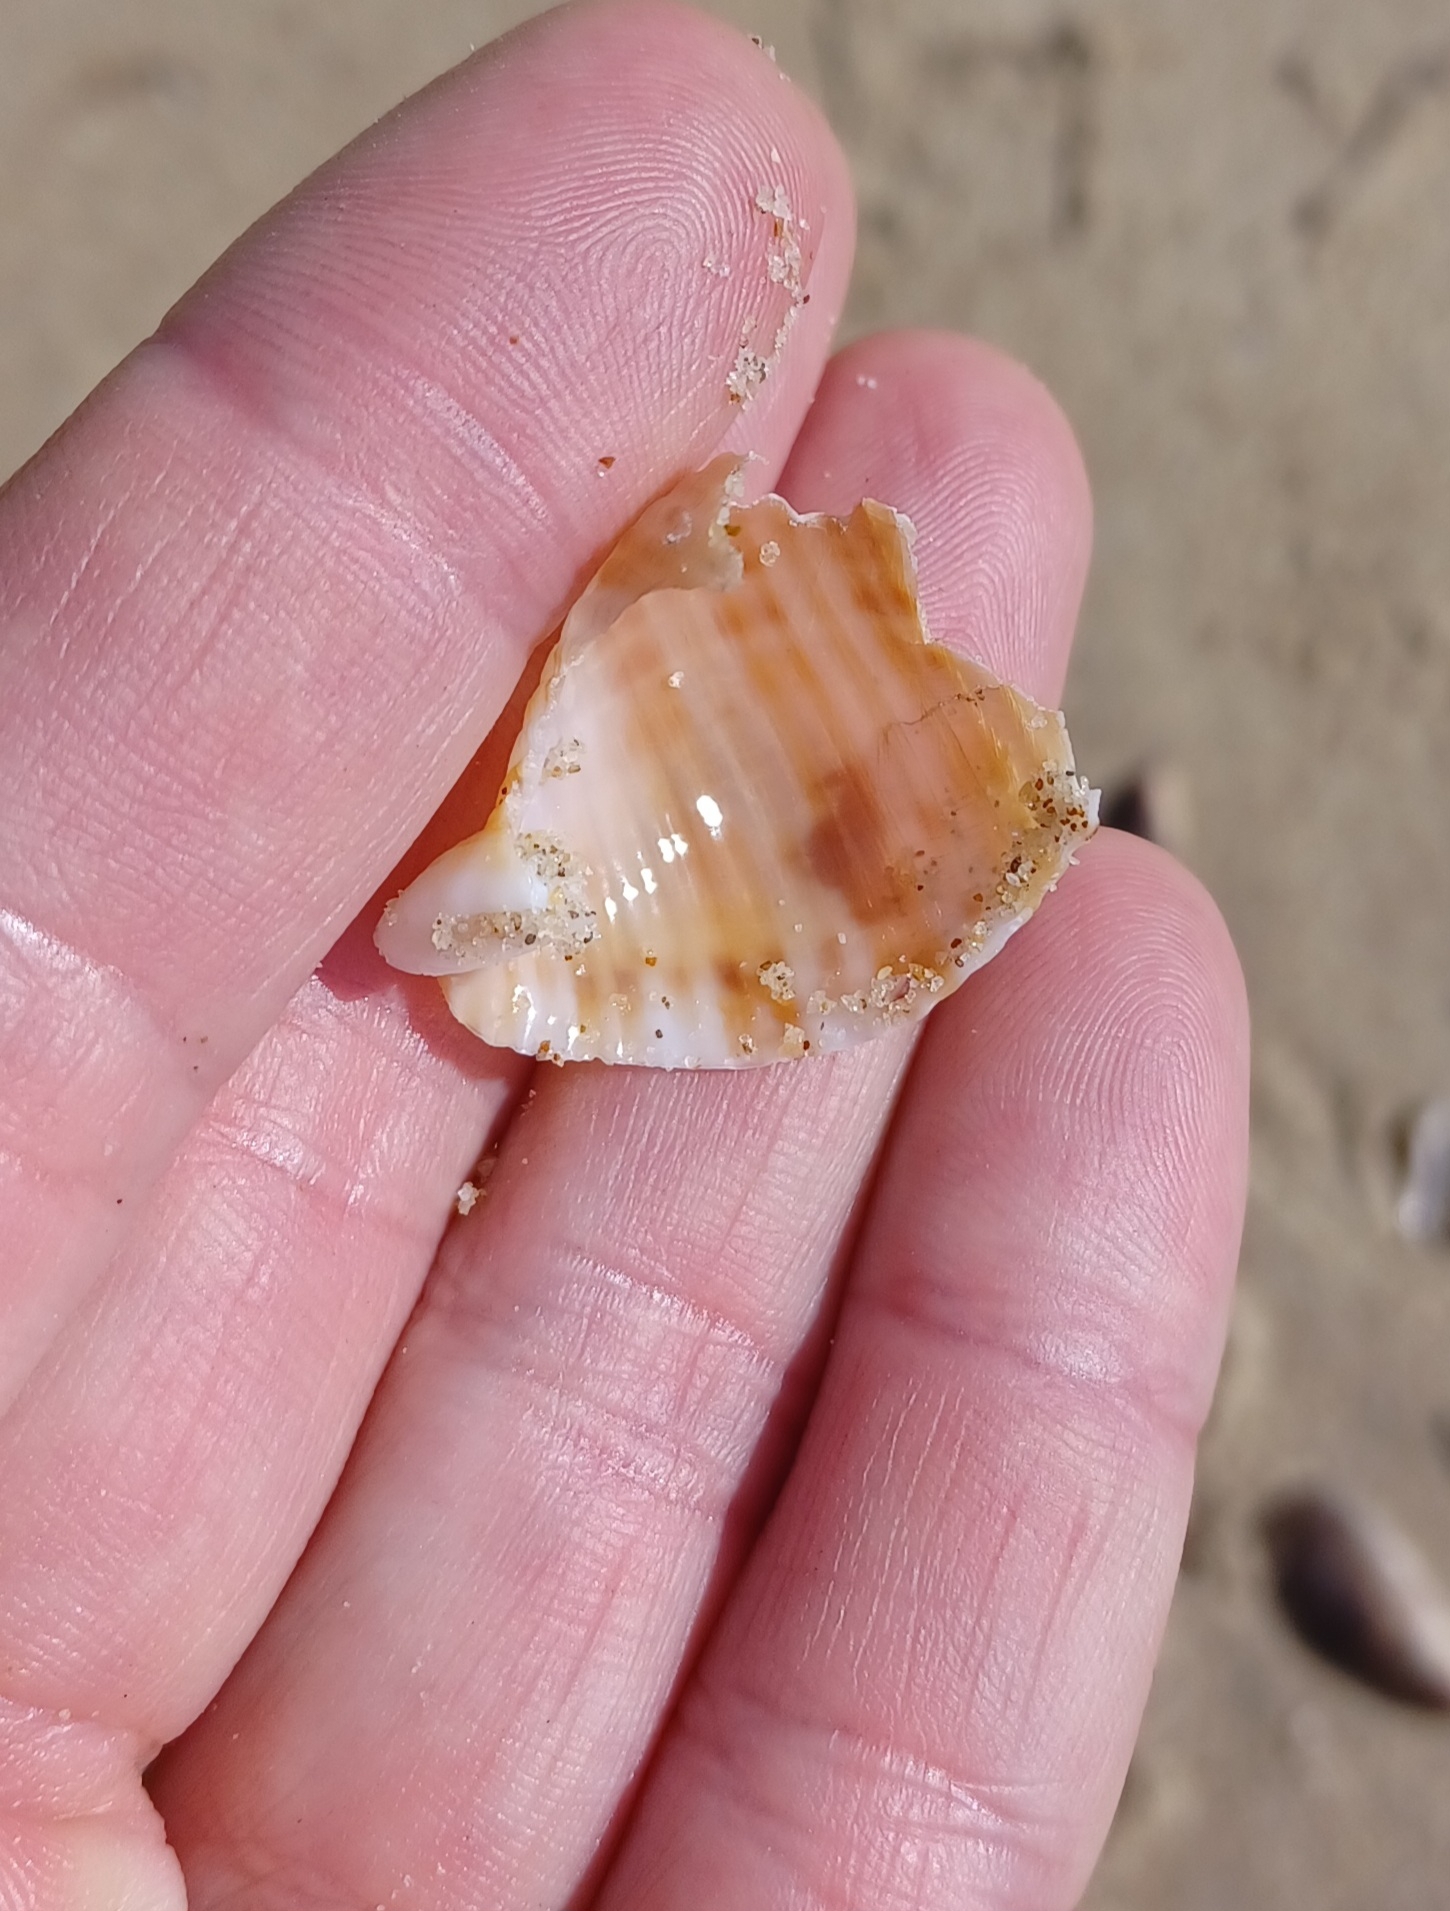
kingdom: Animalia
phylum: Mollusca
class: Gastropoda
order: Littorinimorpha
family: Tonnidae
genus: Tonna
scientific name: Tonna tankervillii
